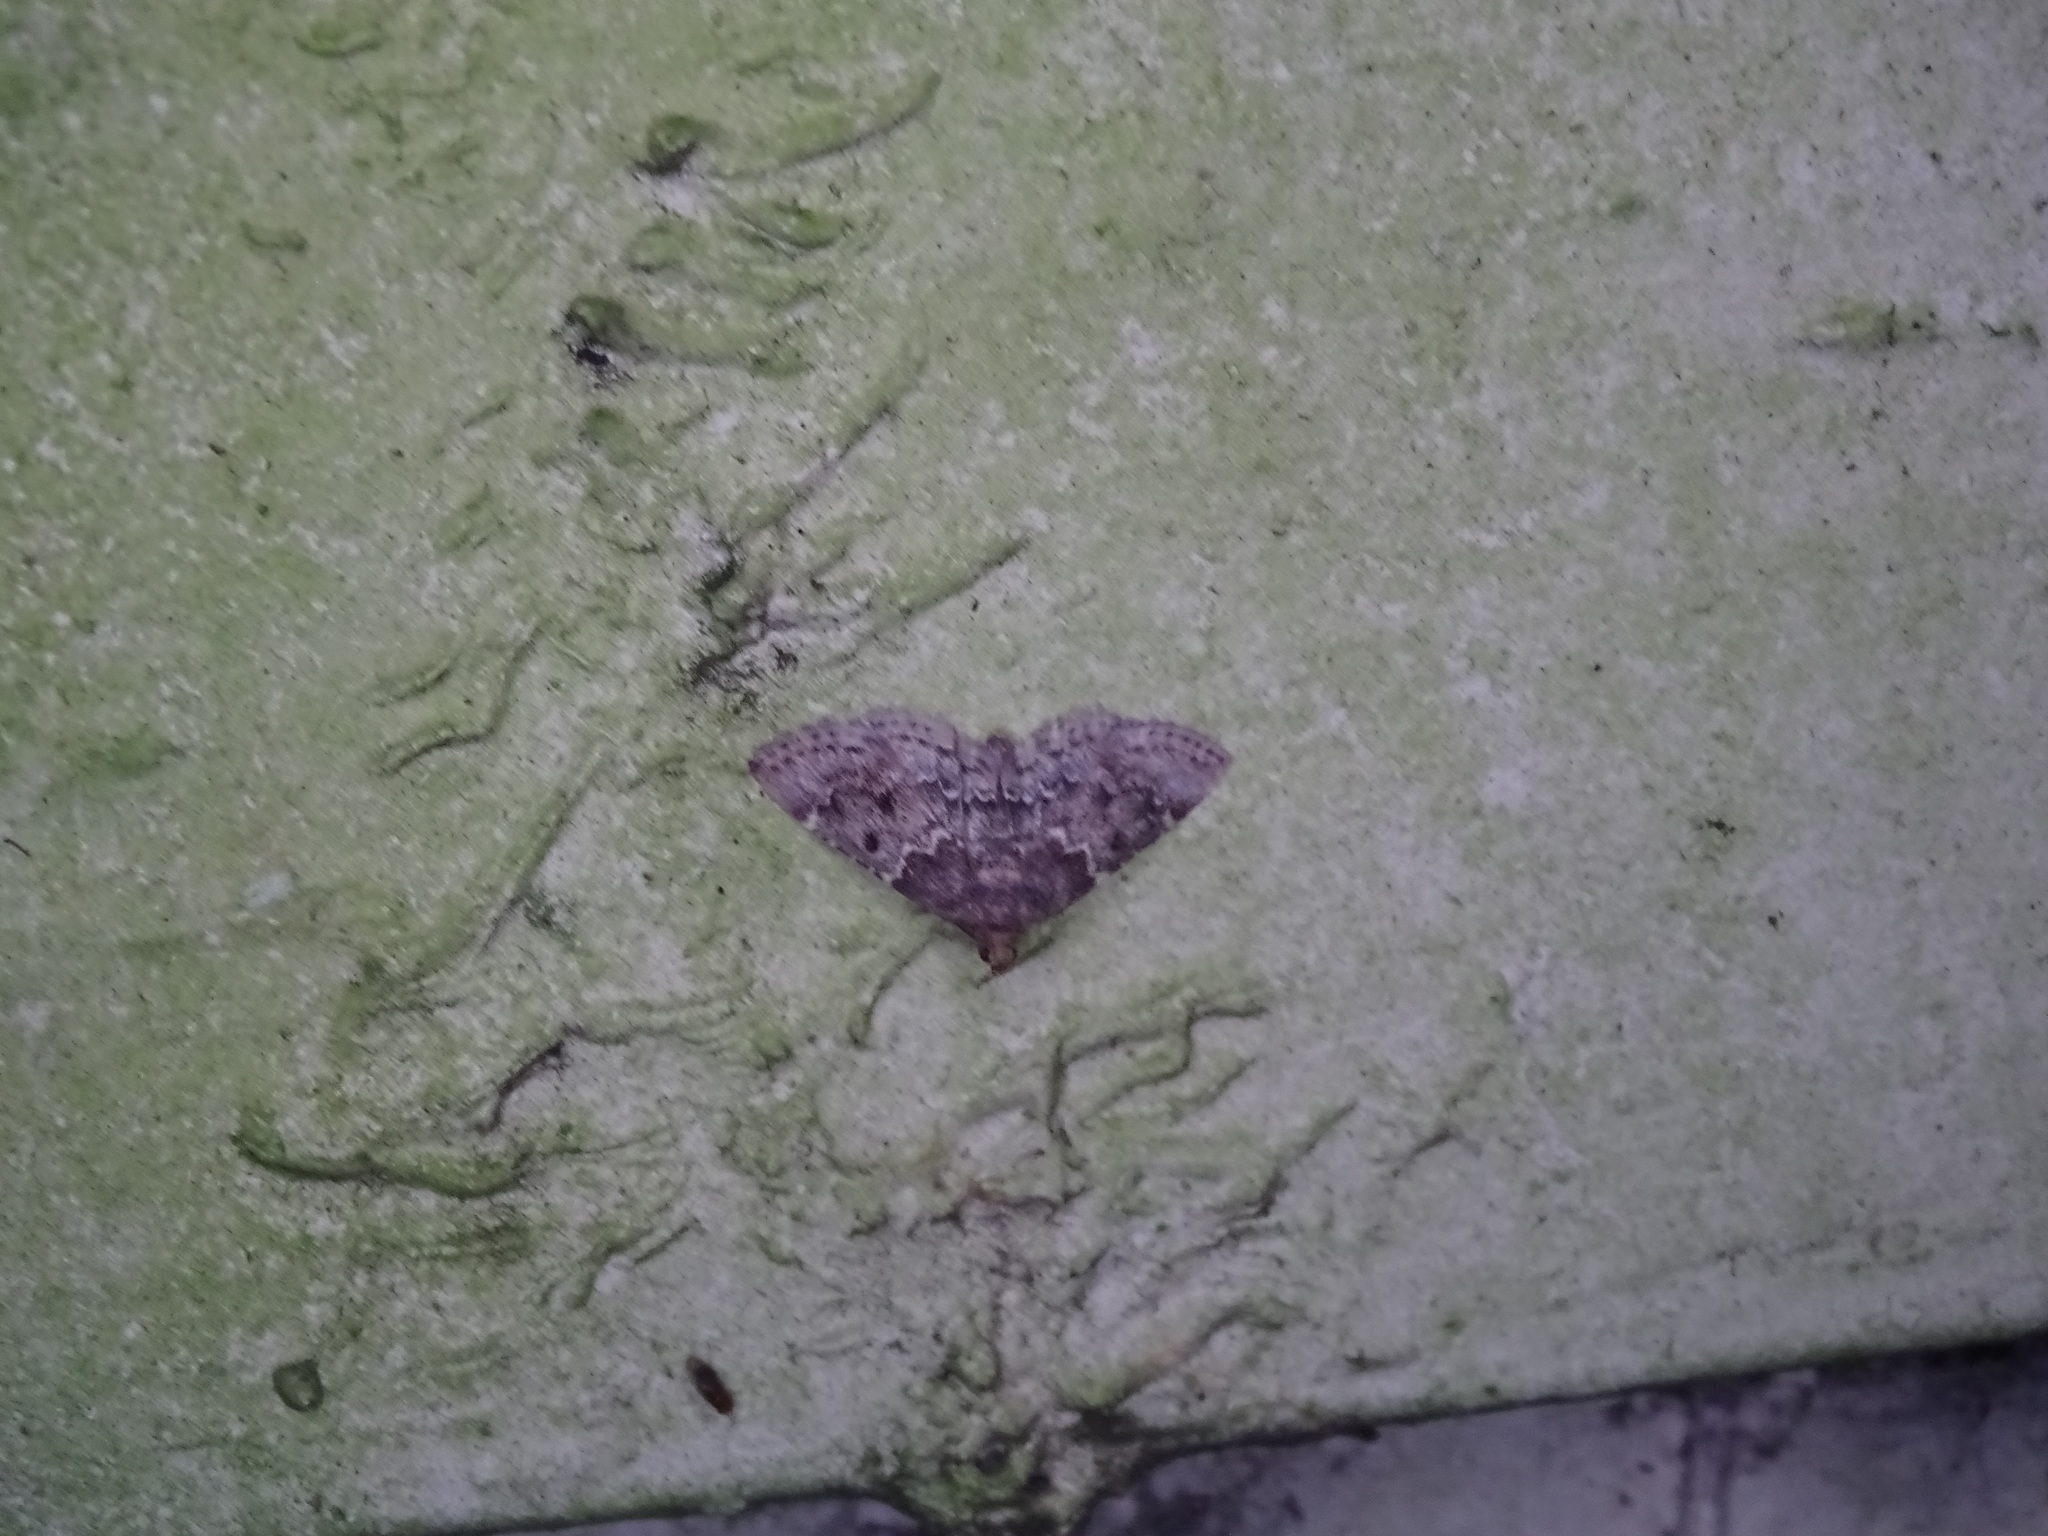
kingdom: Animalia
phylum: Arthropoda
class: Insecta
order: Lepidoptera
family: Pyralidae
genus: Pyralis
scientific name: Pyralis manihotalis
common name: Moth
